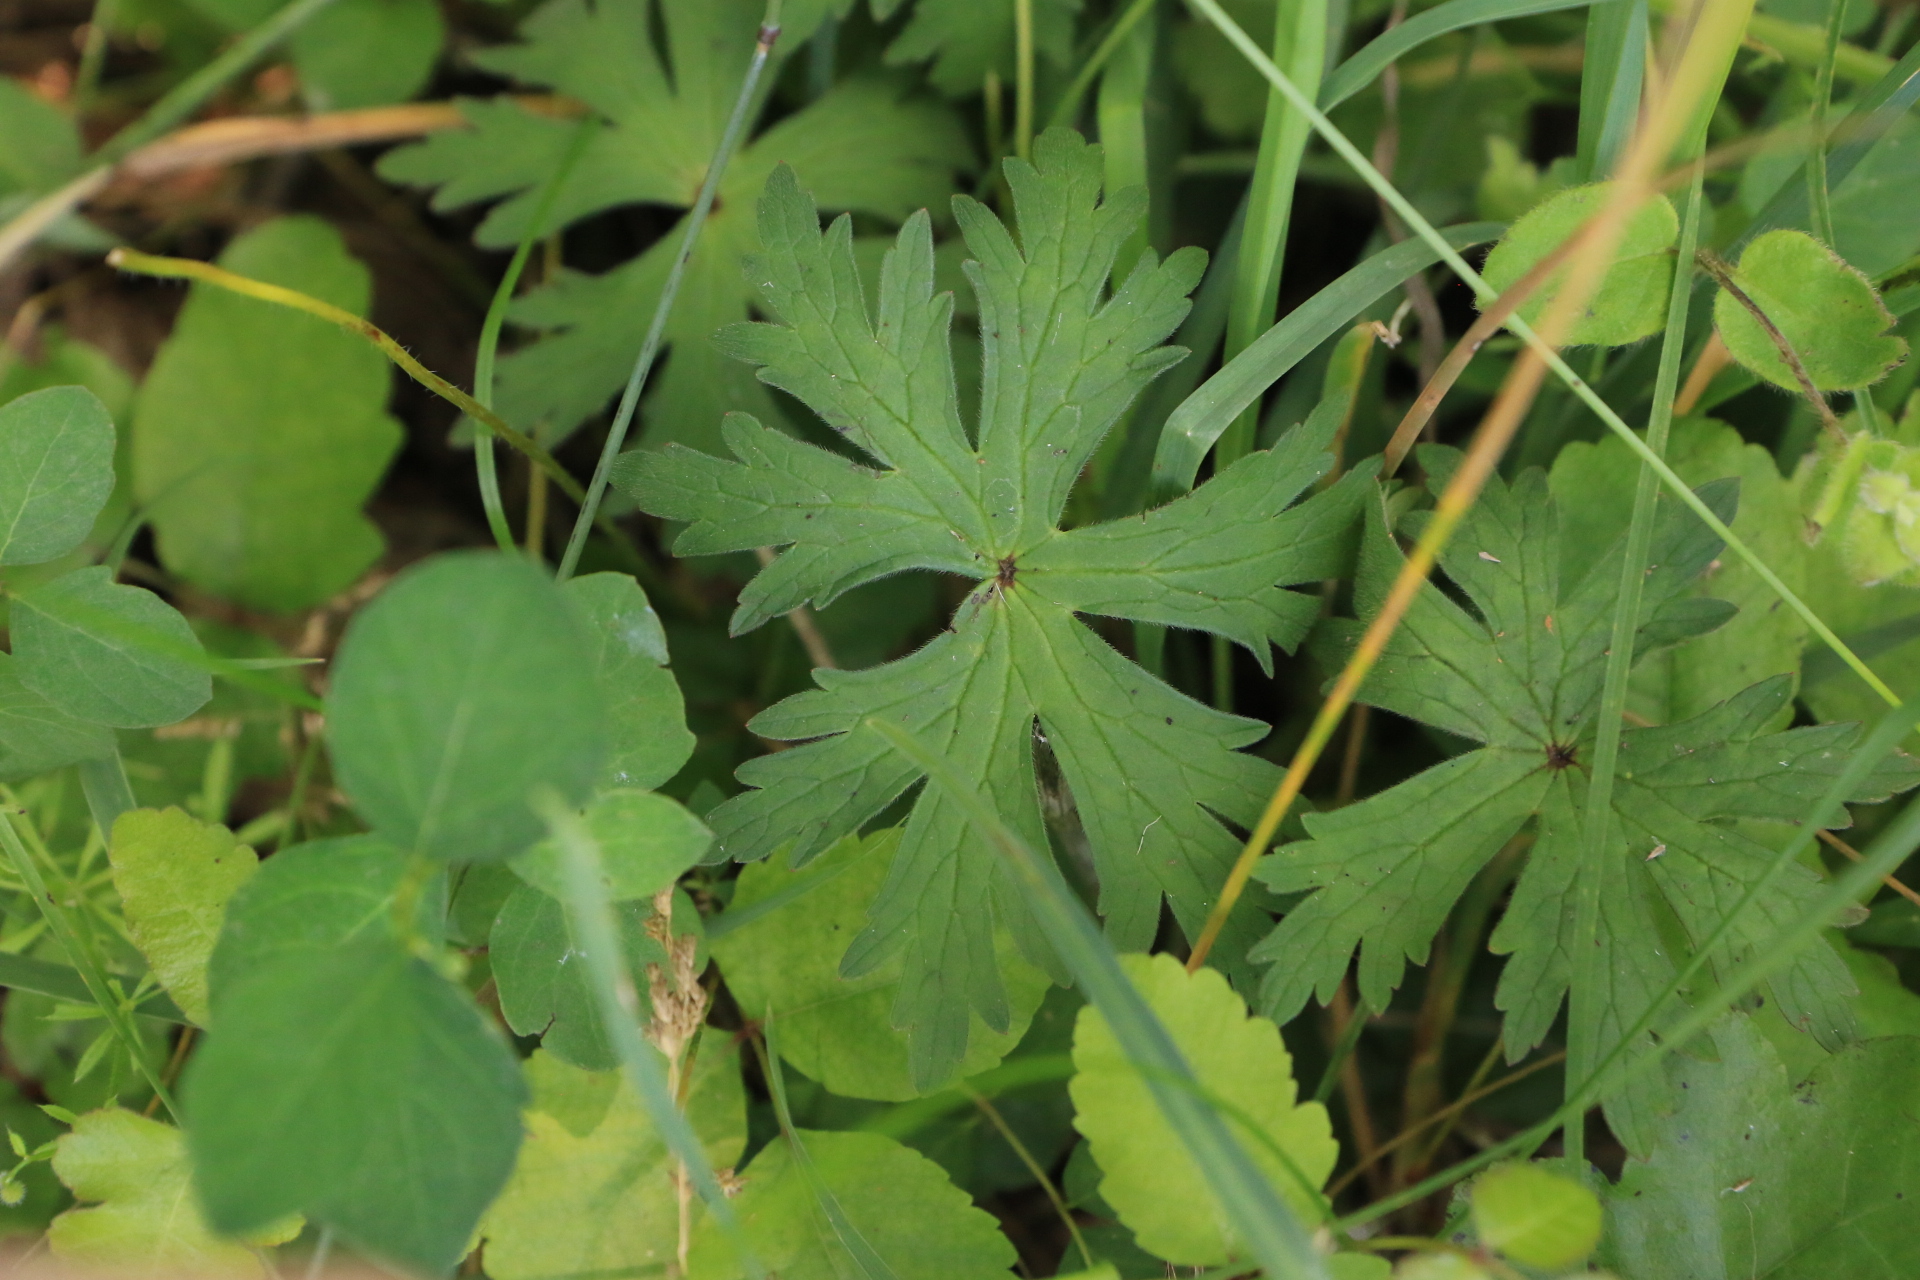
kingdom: Plantae
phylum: Tracheophyta
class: Magnoliopsida
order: Geraniales
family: Geraniaceae
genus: Geranium
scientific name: Geranium oreganum
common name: Oregon crane's-bill
